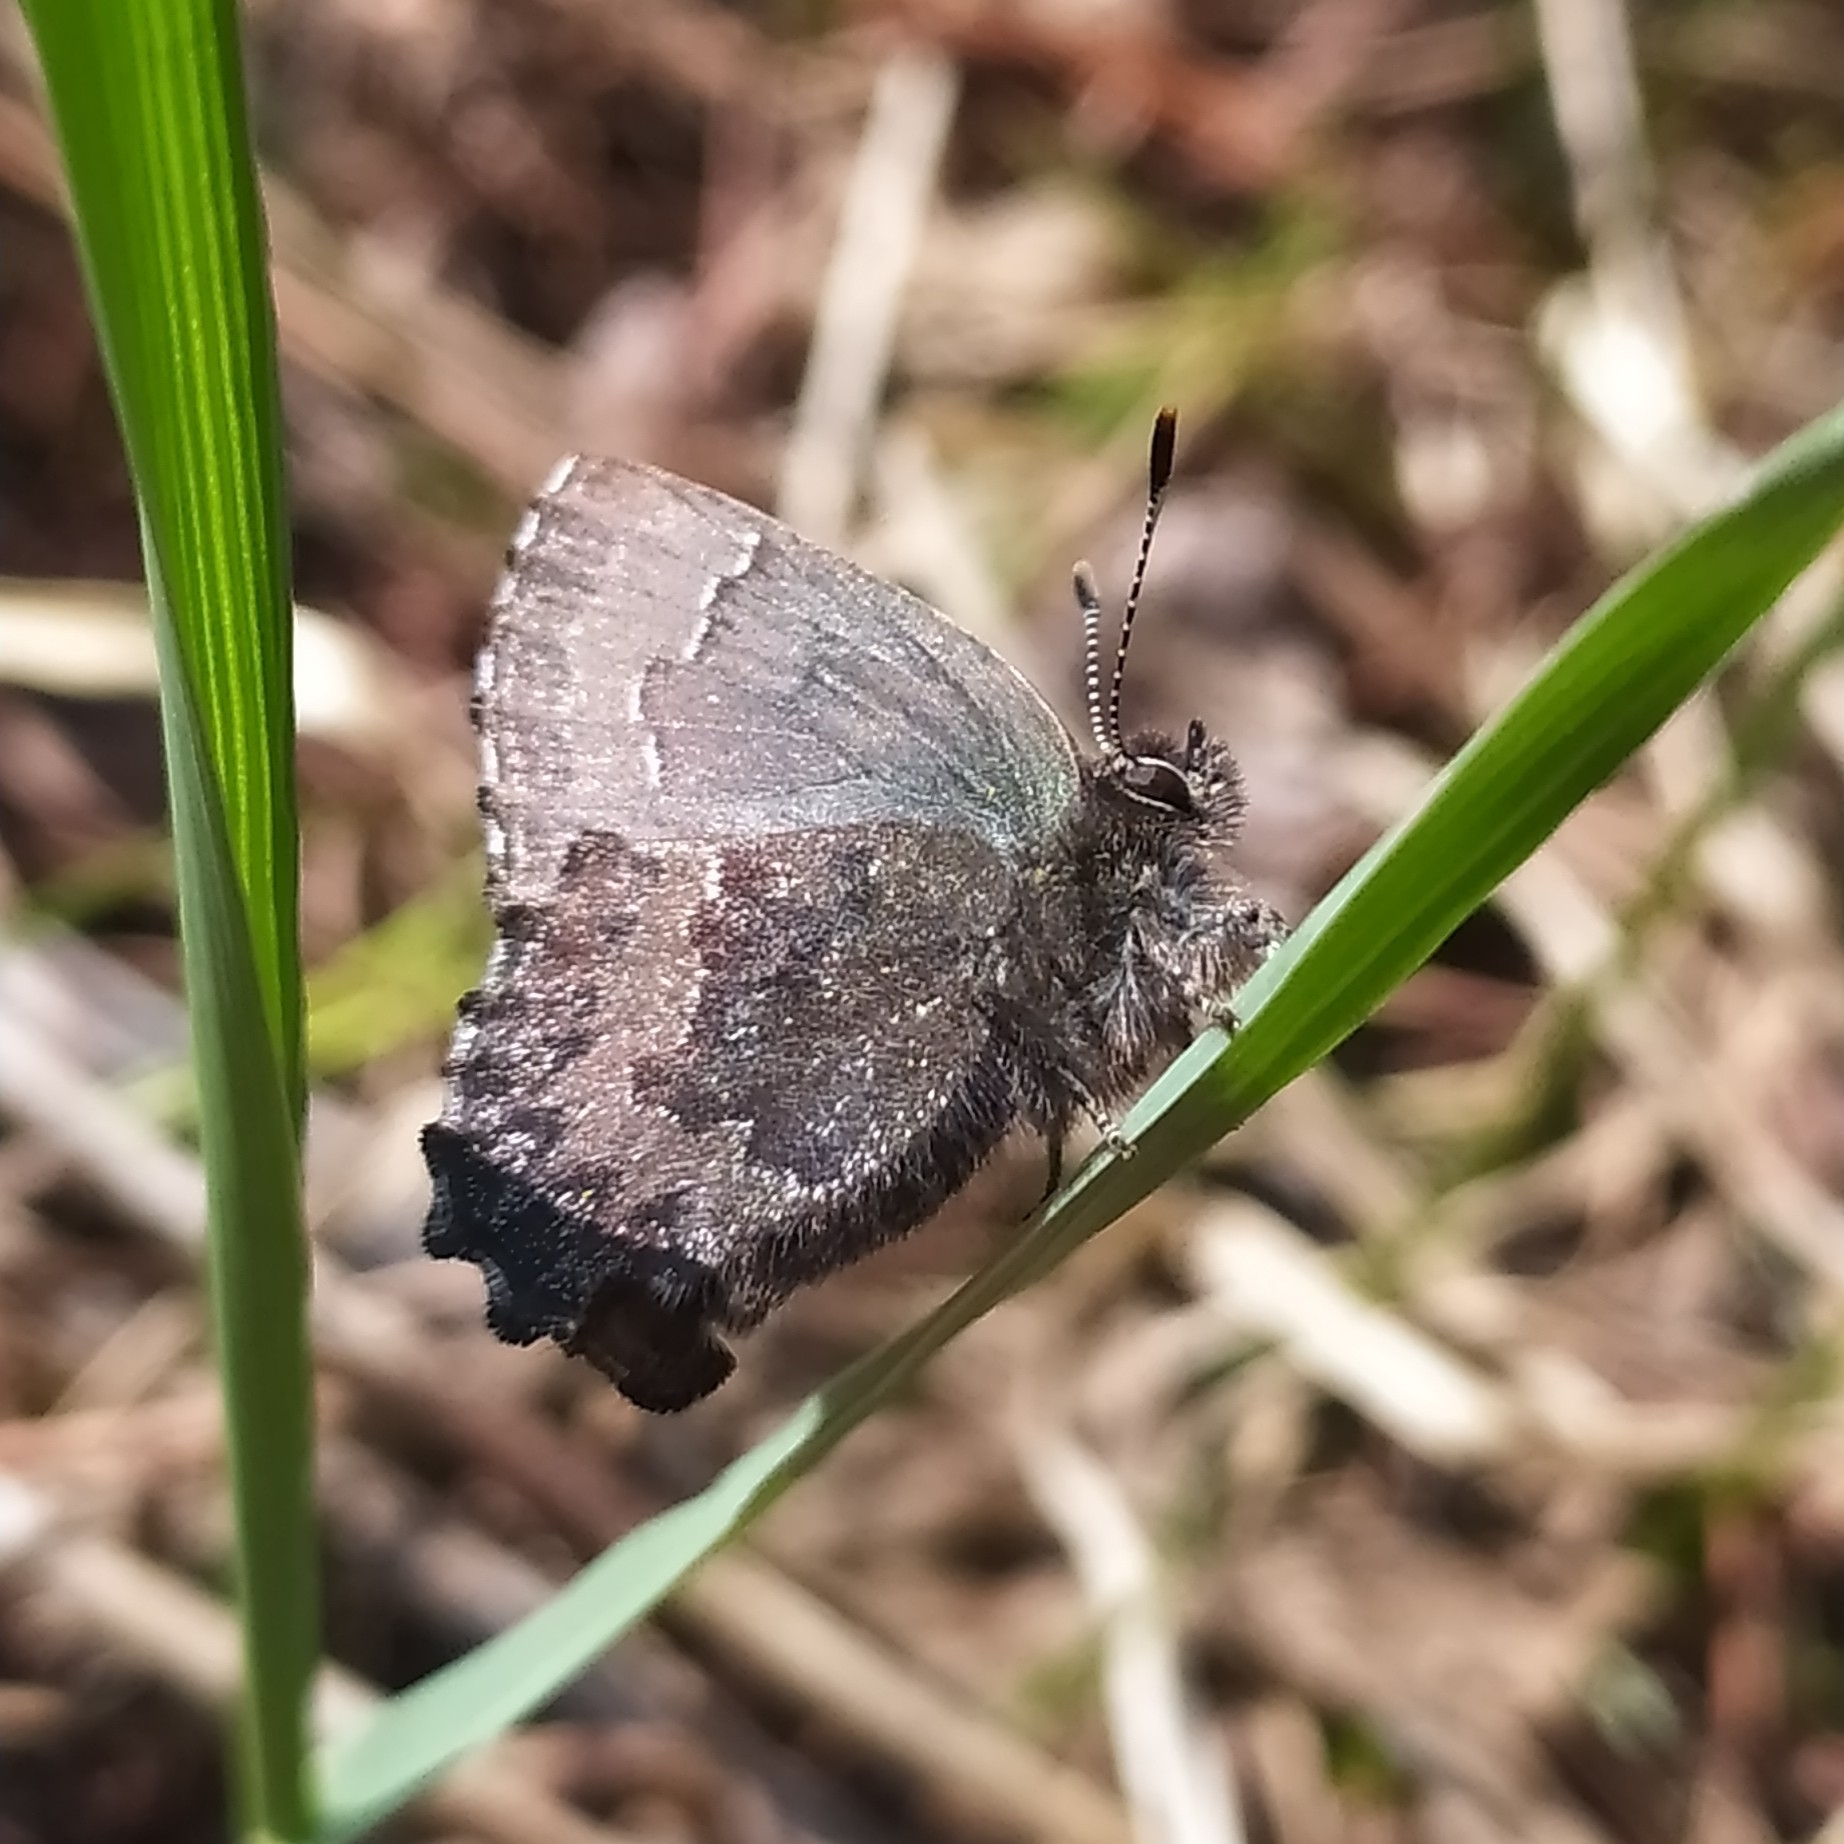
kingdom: Animalia
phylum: Arthropoda
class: Insecta
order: Lepidoptera
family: Lycaenidae
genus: Ginzia
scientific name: Ginzia Ahlbergia frivaldszkyi
